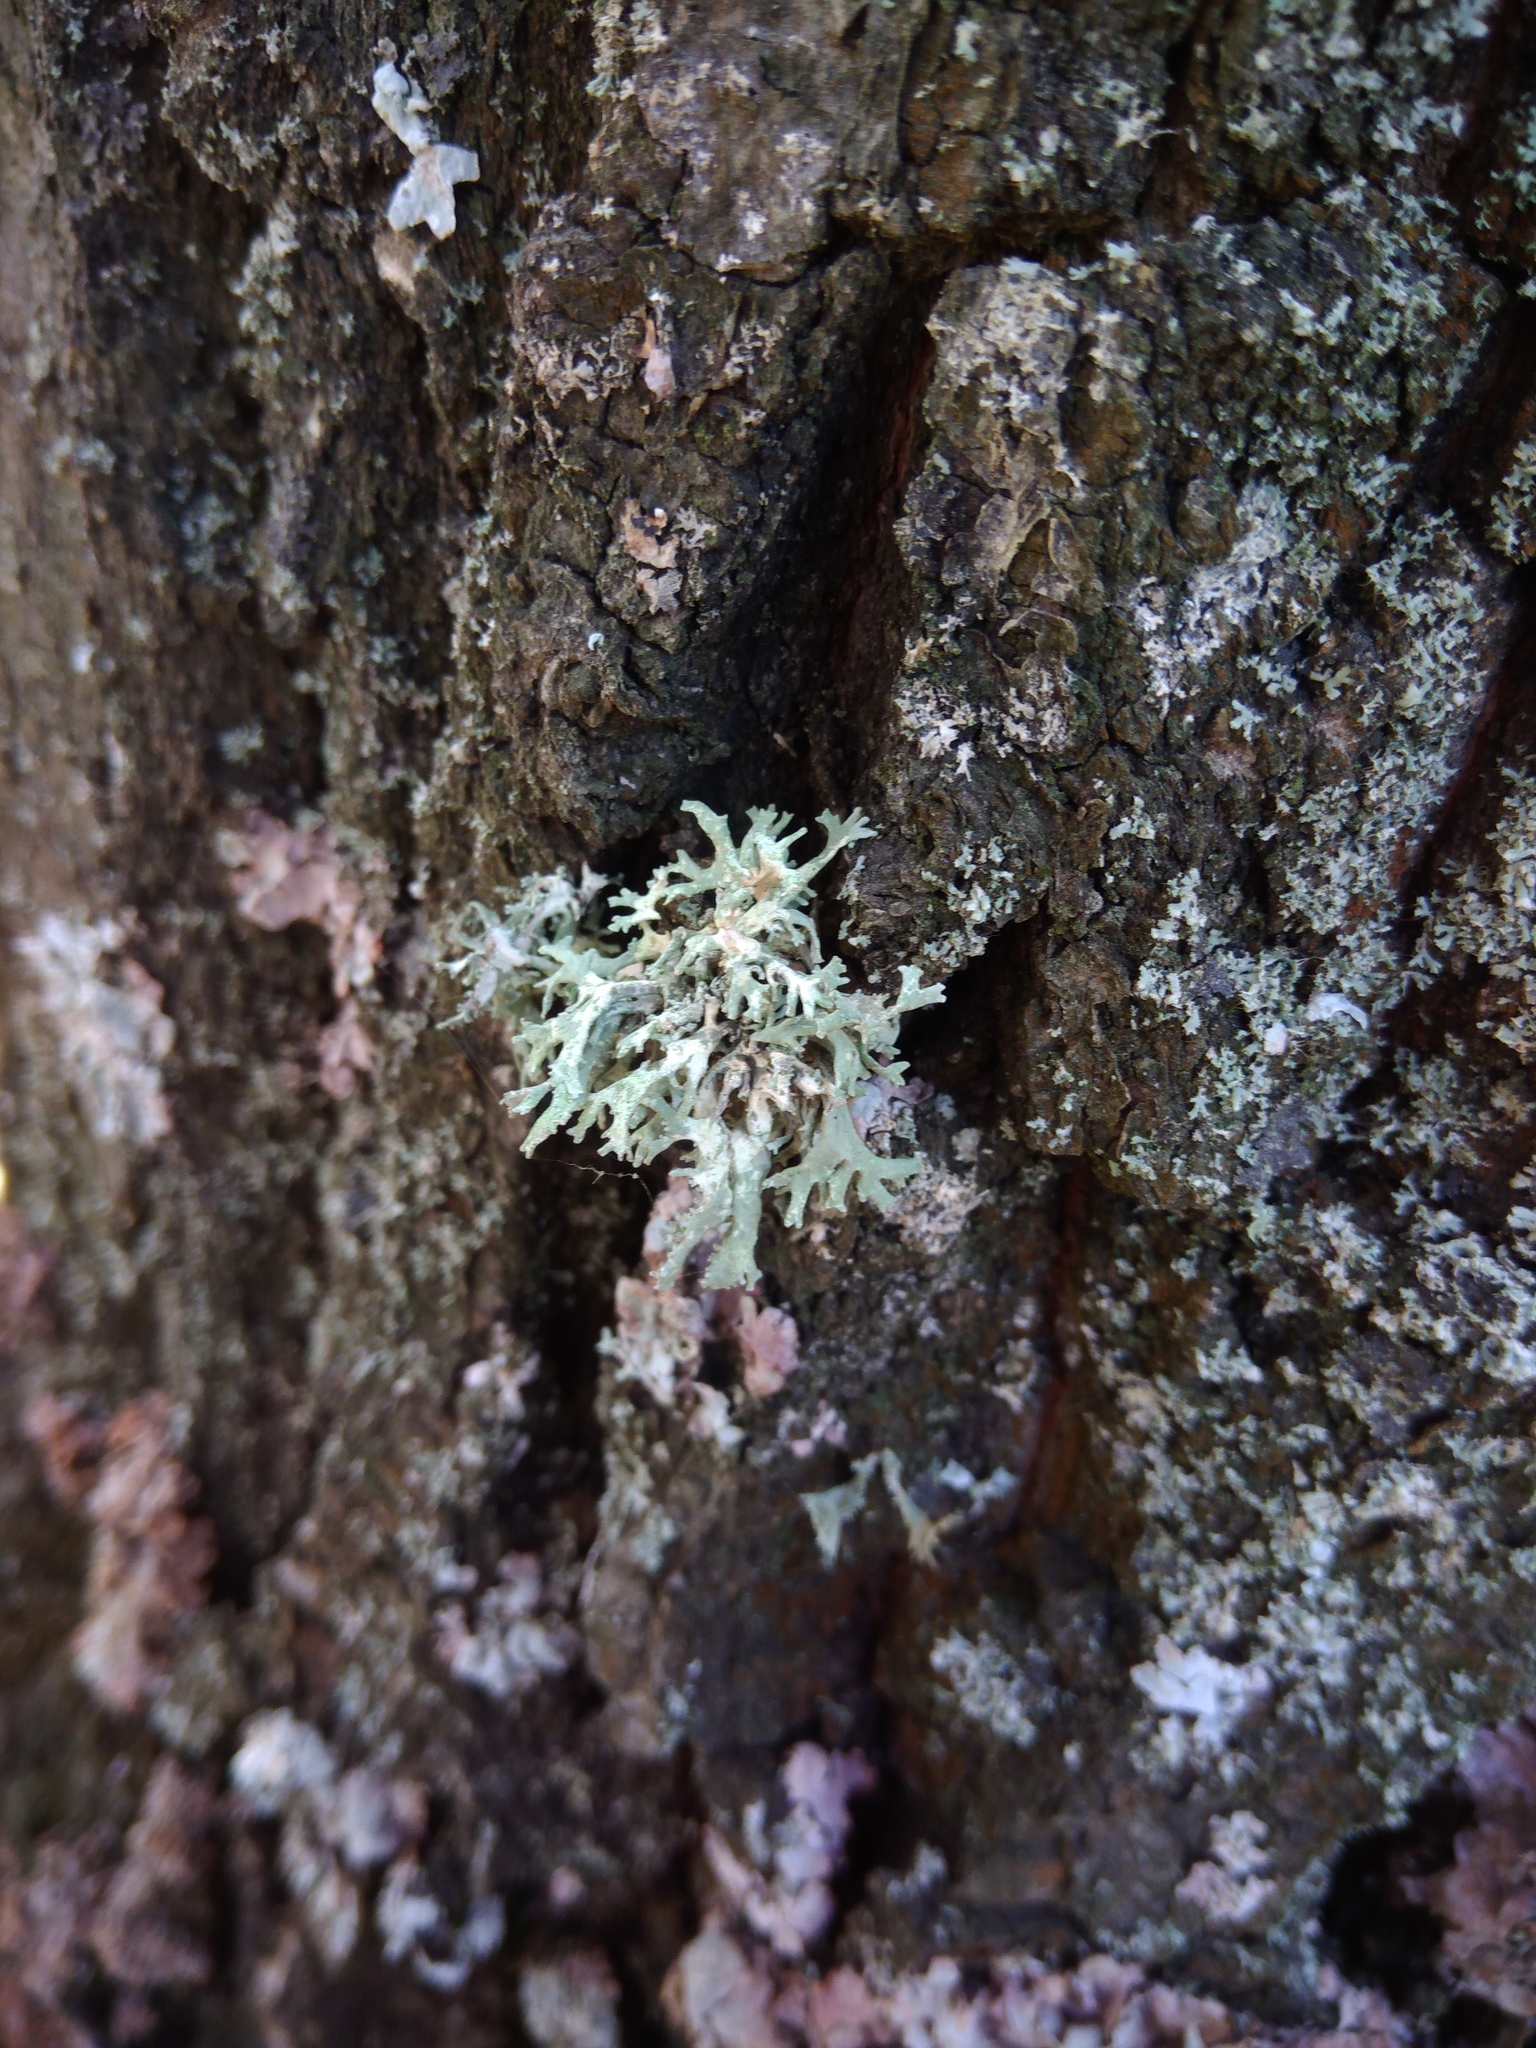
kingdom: Fungi
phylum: Ascomycota
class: Lecanoromycetes
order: Lecanorales
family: Parmeliaceae
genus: Evernia
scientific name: Evernia prunastri
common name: Oak moss
